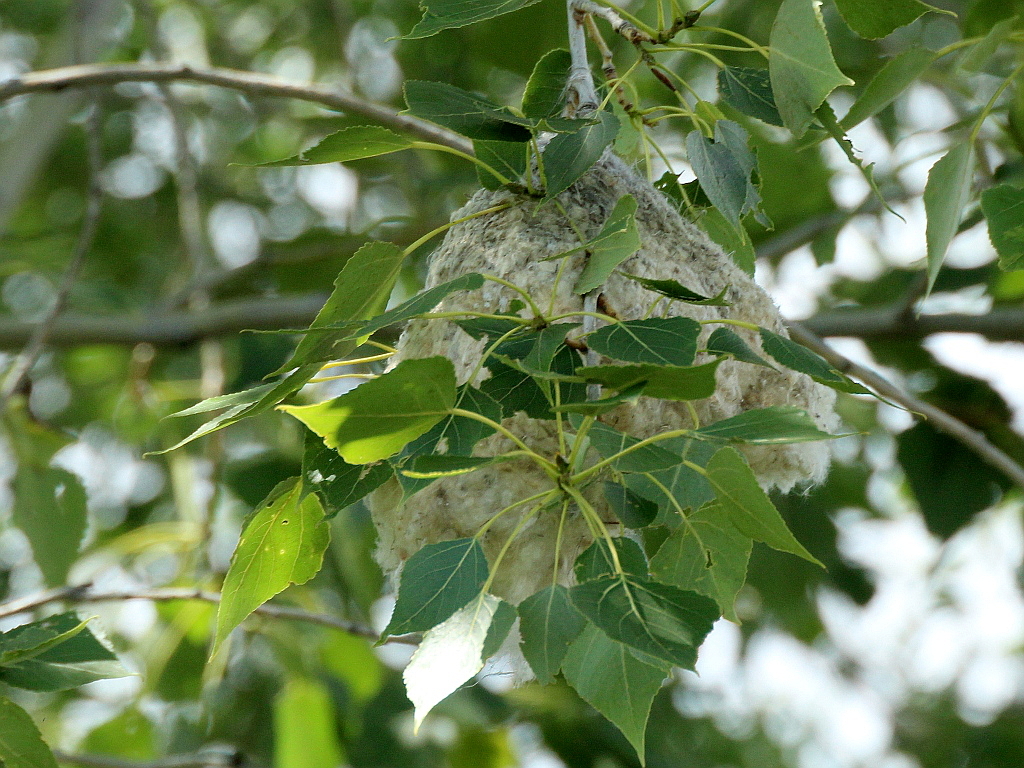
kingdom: Animalia
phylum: Chordata
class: Aves
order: Passeriformes
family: Remizidae
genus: Remiz
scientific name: Remiz pendulinus
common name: Eurasian penduline tit
